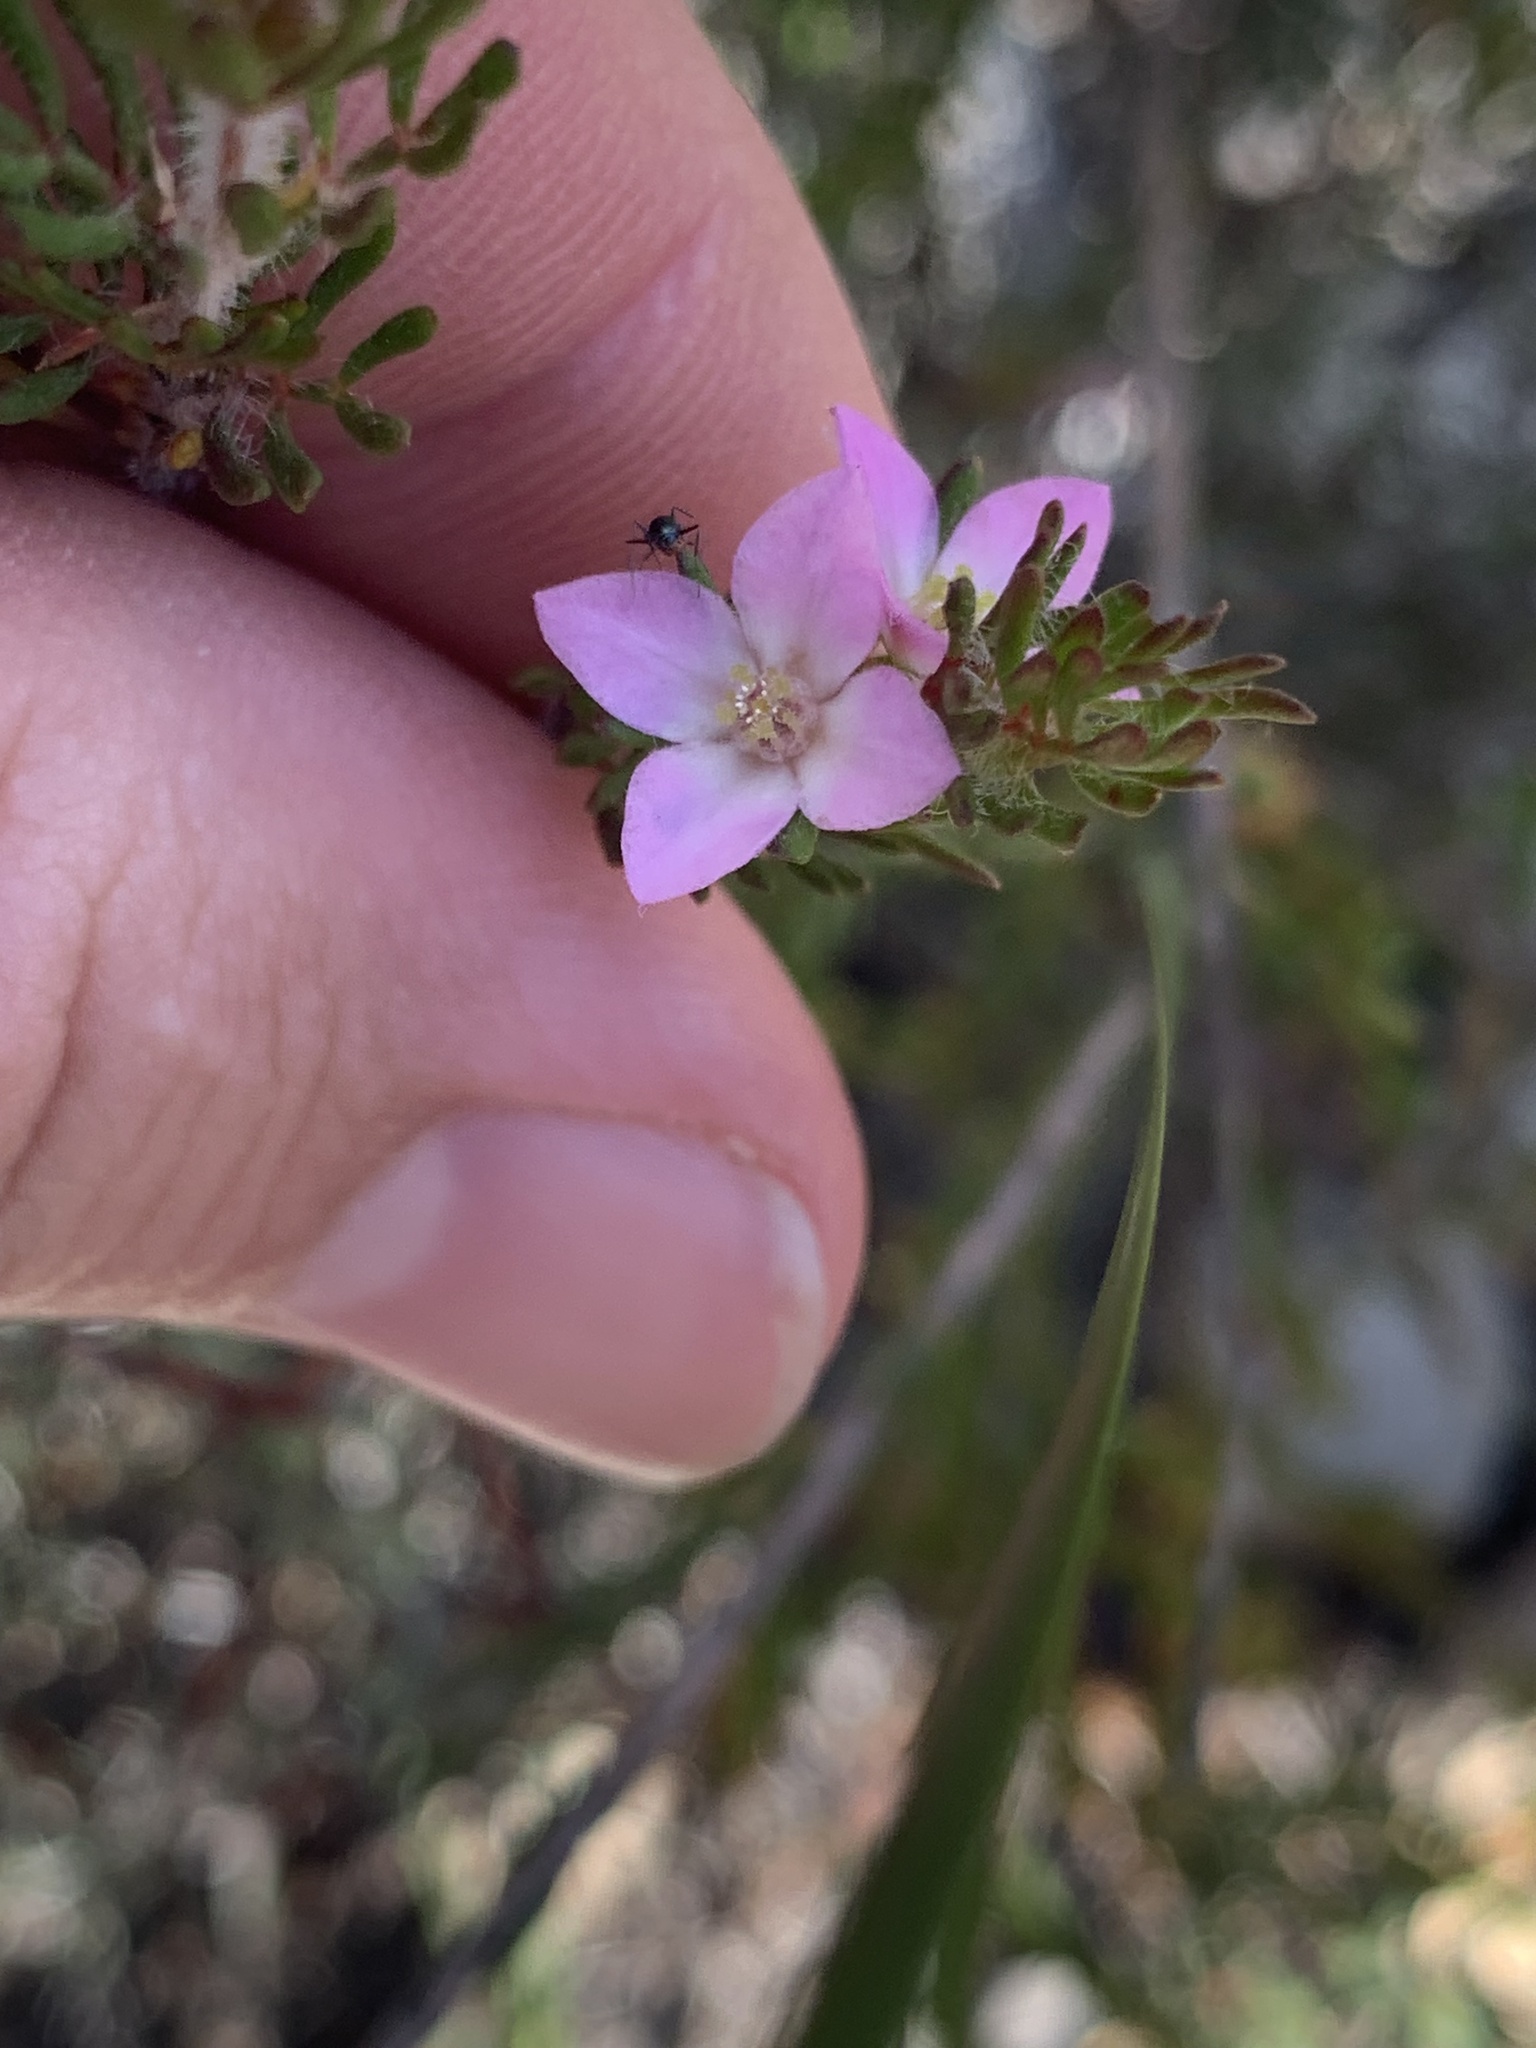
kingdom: Plantae
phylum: Tracheophyta
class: Magnoliopsida
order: Sapindales
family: Rutaceae
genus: Boronia
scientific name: Boronia albiflora
